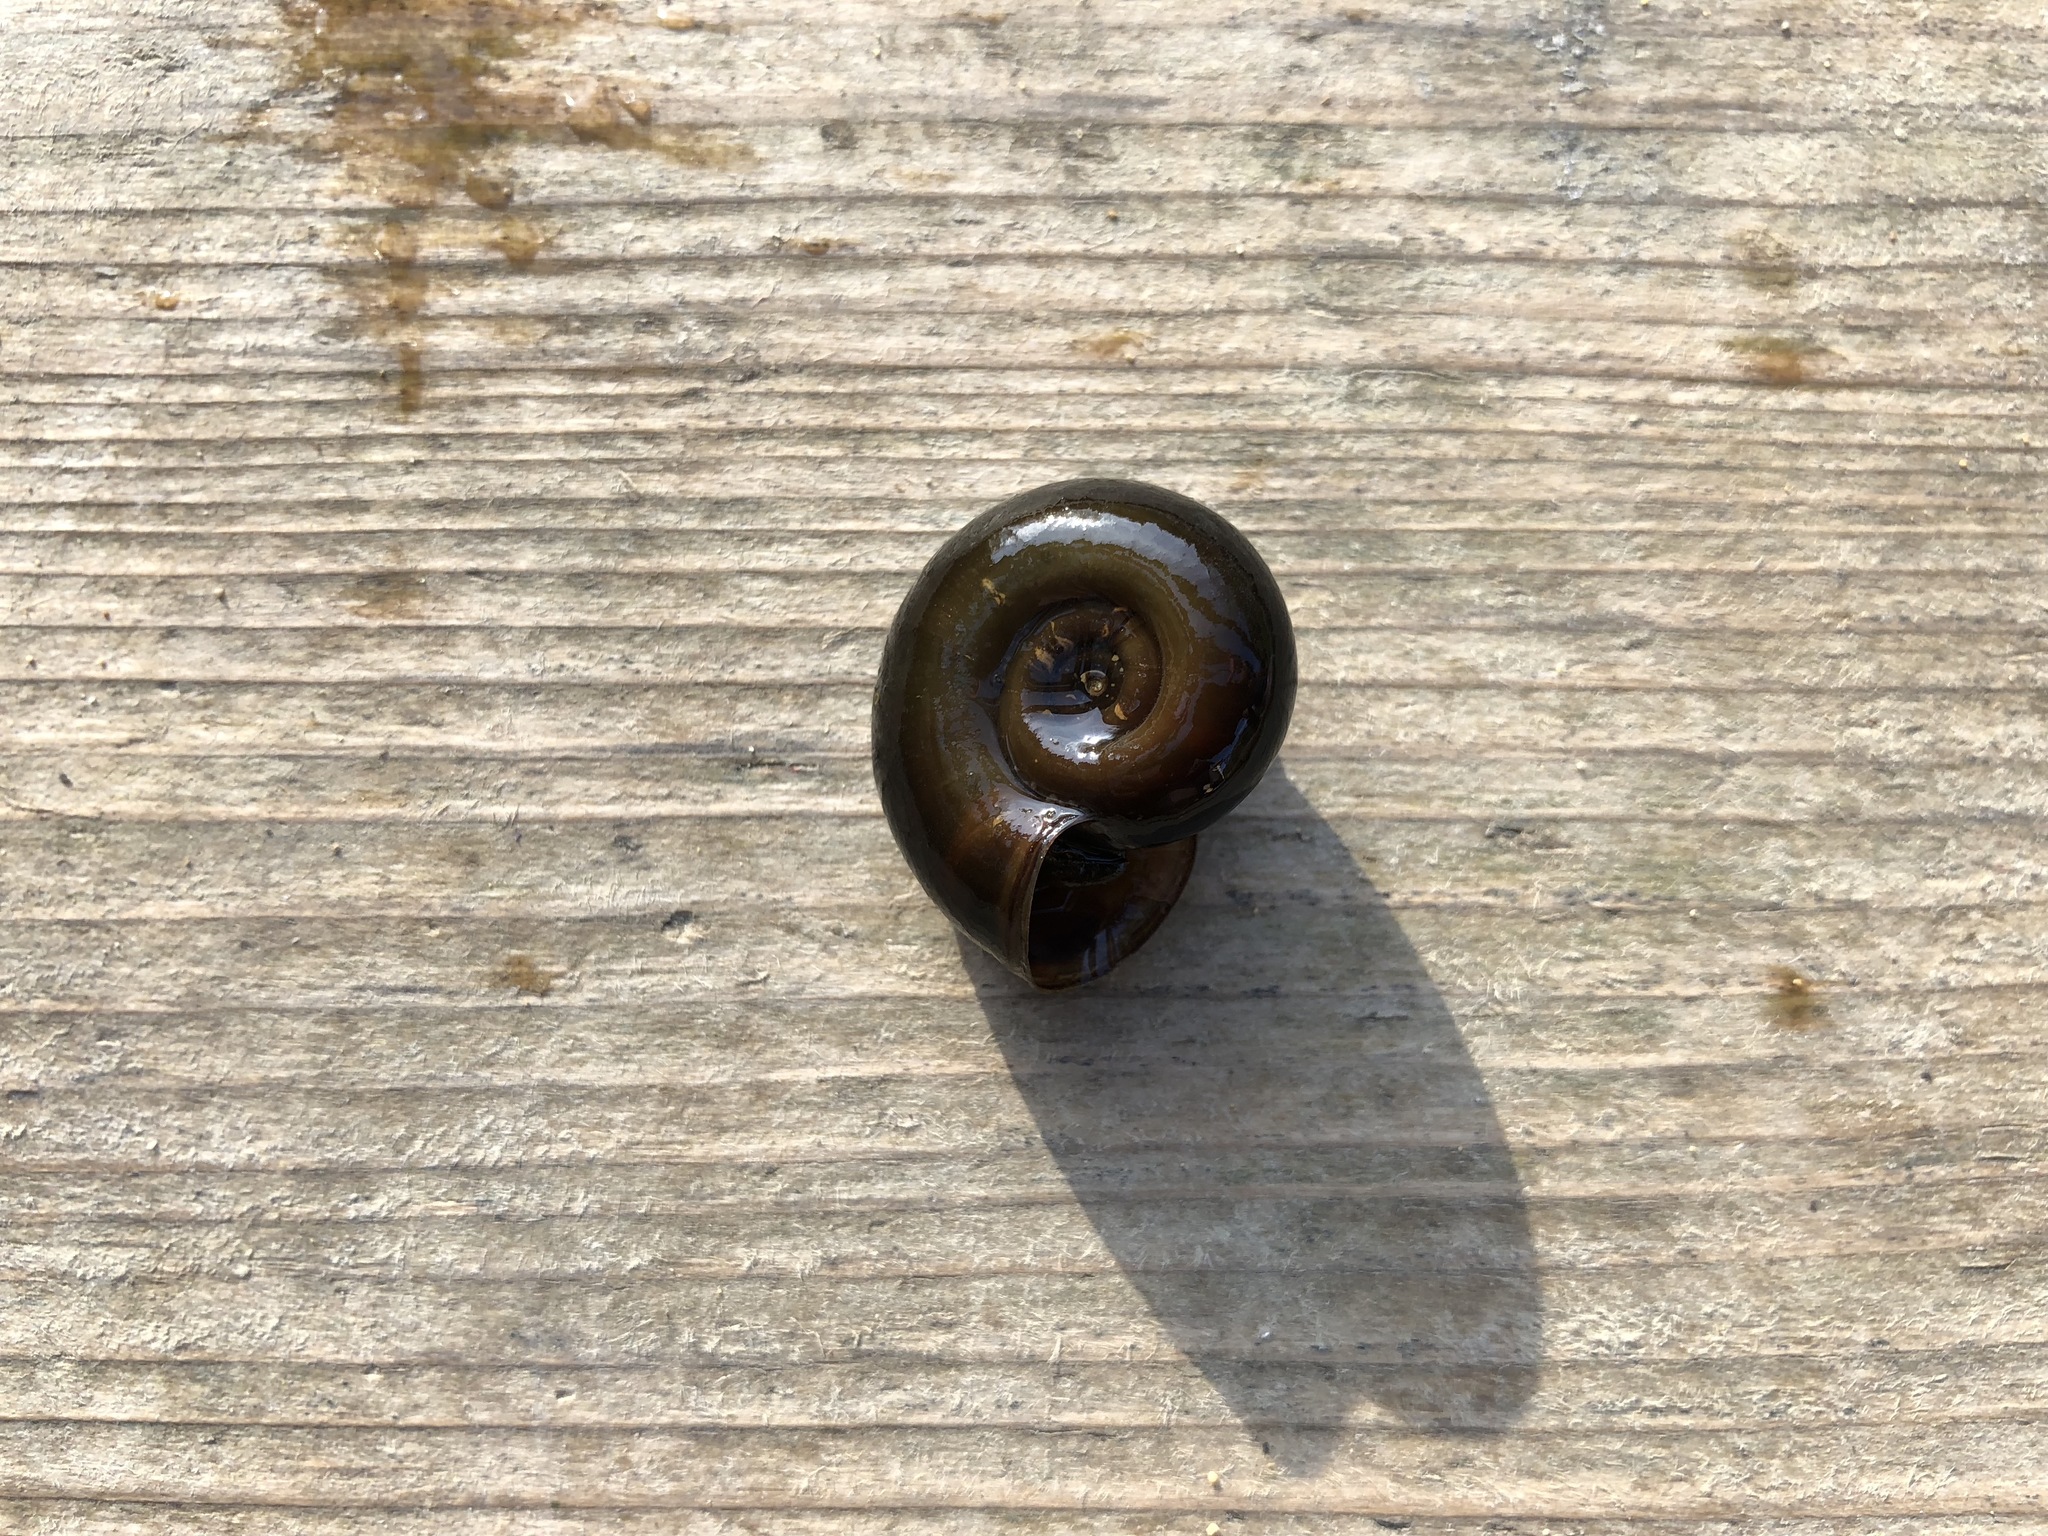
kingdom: Animalia
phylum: Mollusca
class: Gastropoda
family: Planorbidae
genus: Planorbarius
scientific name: Planorbarius corneus
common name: Great ramshorn
